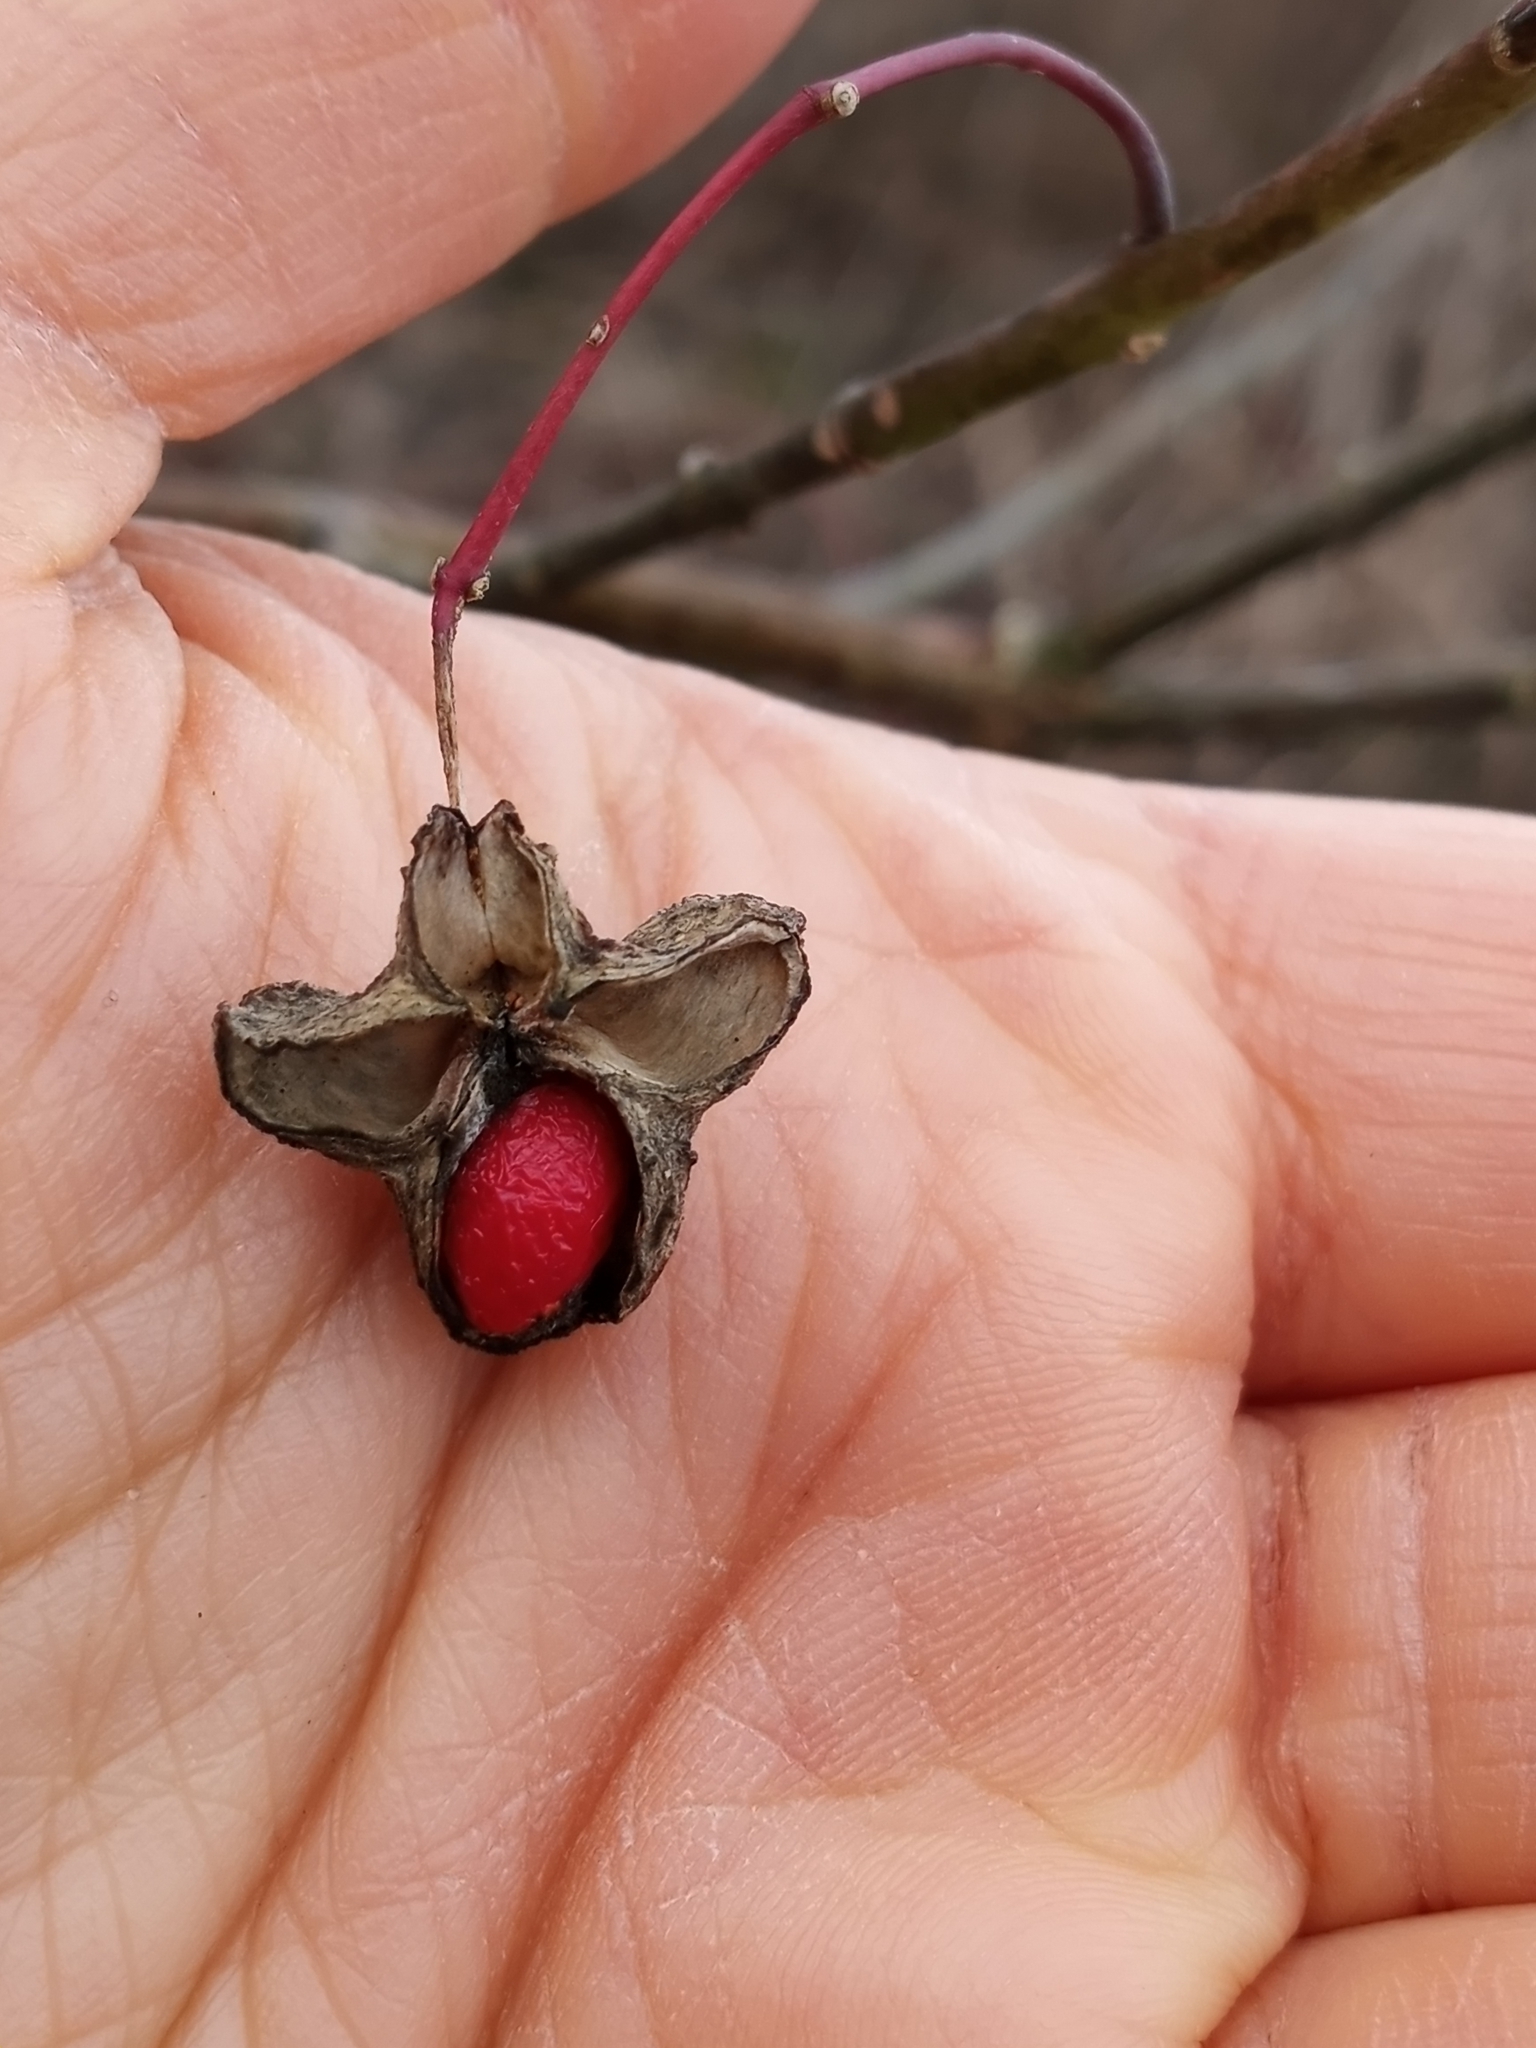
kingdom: Plantae
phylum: Tracheophyta
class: Magnoliopsida
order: Celastrales
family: Celastraceae
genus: Euonymus
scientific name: Euonymus atropurpureus
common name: Eastern wahoo
